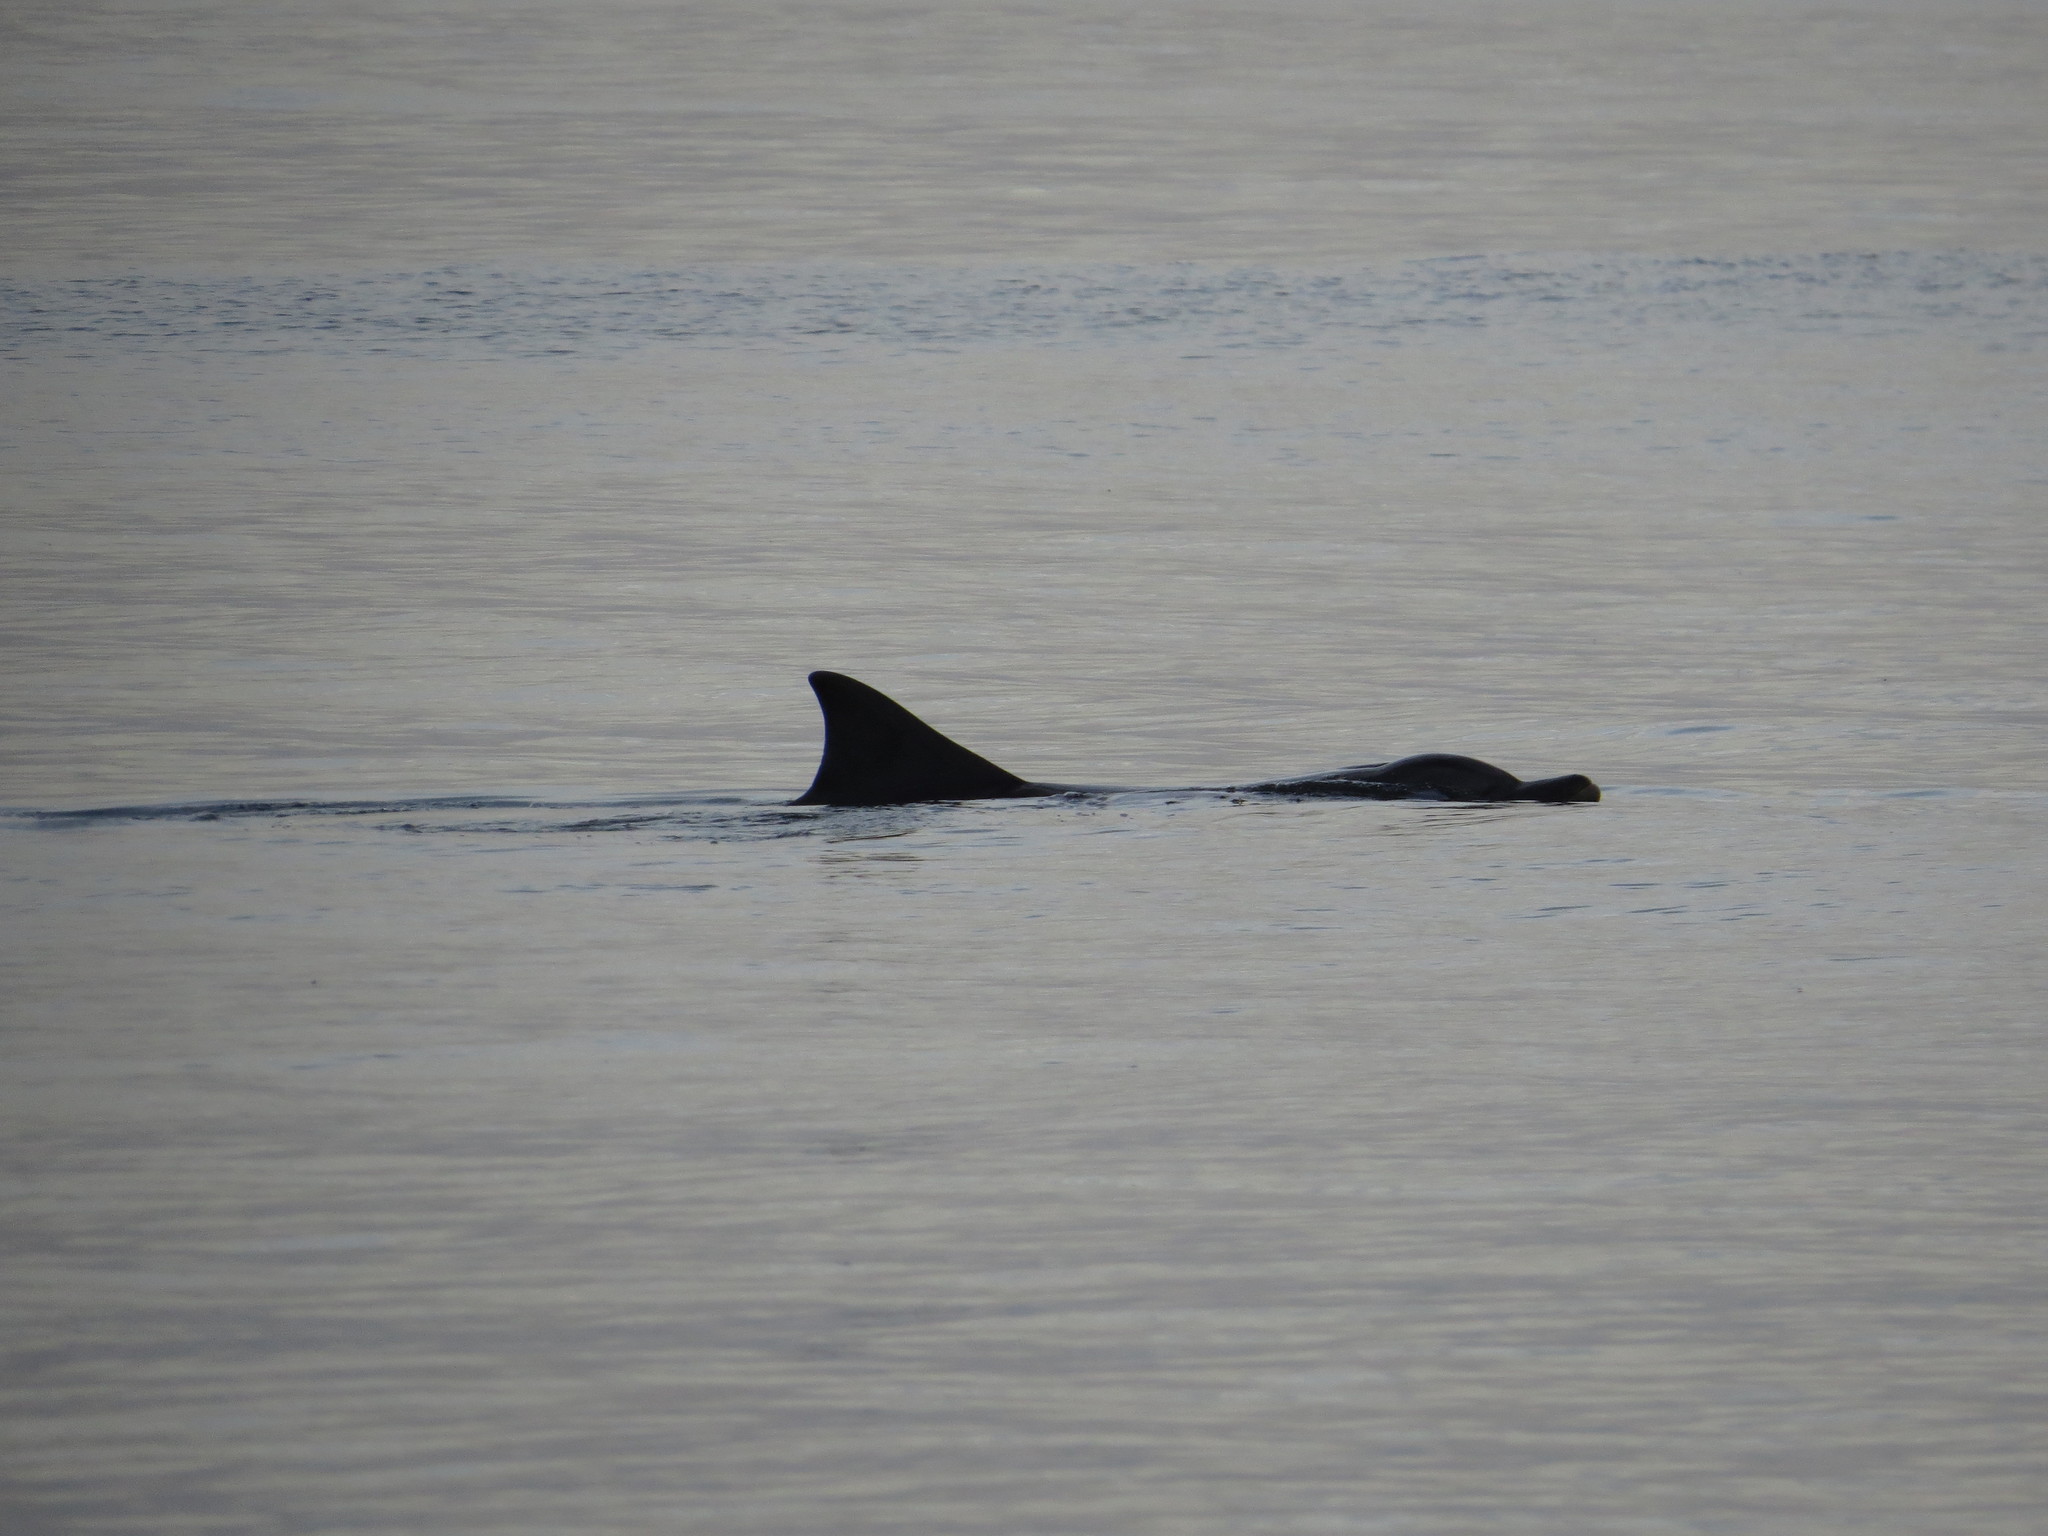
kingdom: Animalia
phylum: Chordata
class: Mammalia
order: Cetacea
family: Delphinidae
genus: Tursiops
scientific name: Tursiops truncatus
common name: Bottlenose dolphin
